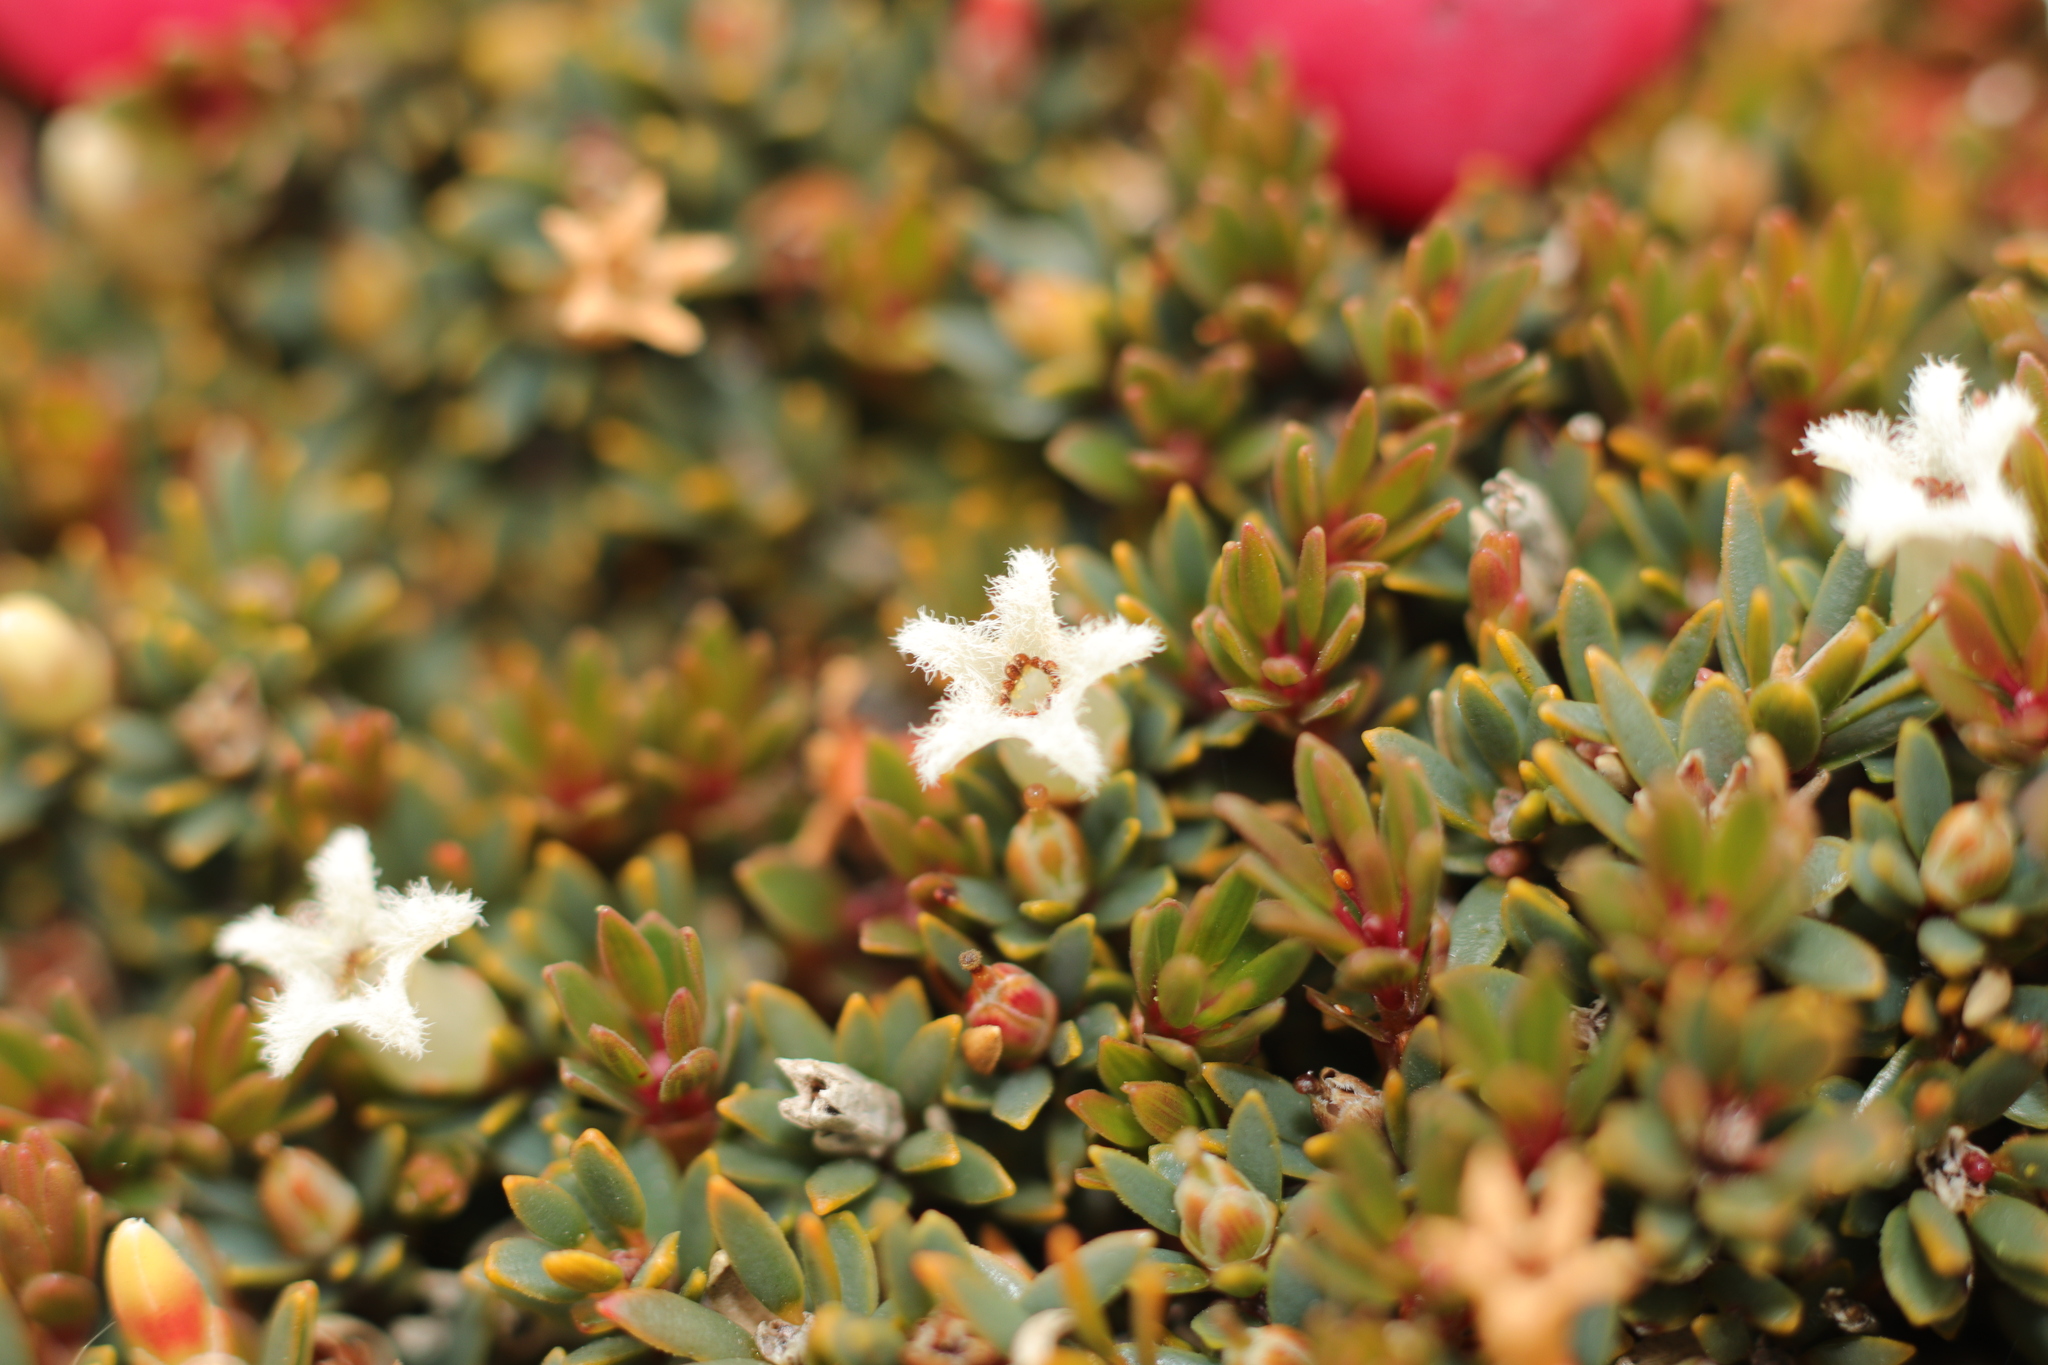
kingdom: Plantae
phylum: Tracheophyta
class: Magnoliopsida
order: Ericales
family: Ericaceae
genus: Pentachondra
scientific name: Pentachondra pumila
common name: Carpet-heath
